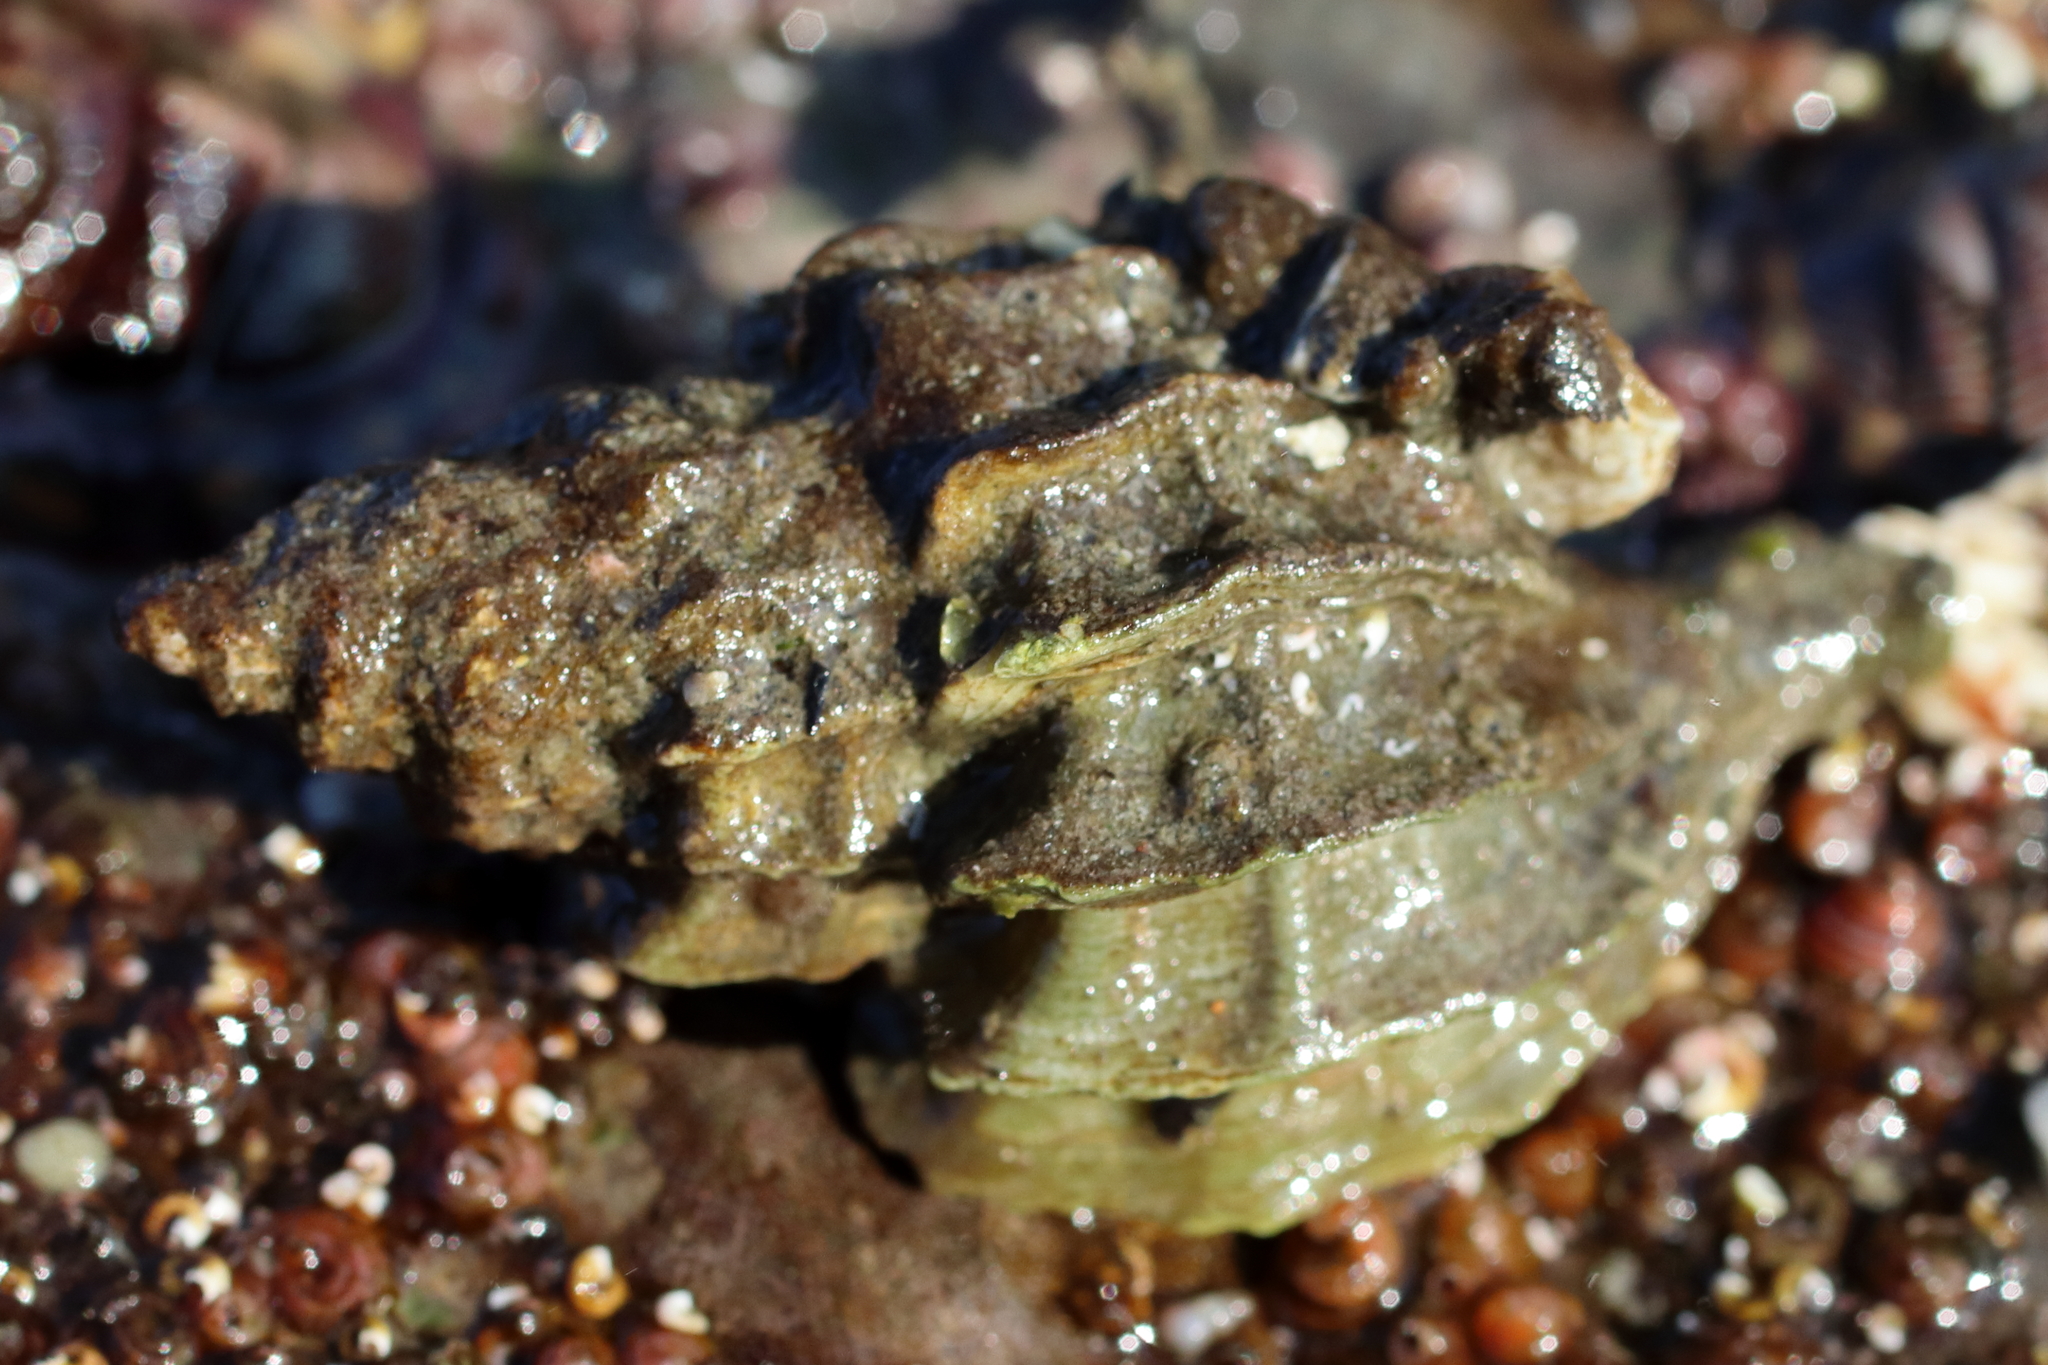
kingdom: Animalia
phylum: Mollusca
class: Gastropoda
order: Neogastropoda
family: Muricidae
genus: Scabrotrophon
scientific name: Scabrotrophon stuarti
